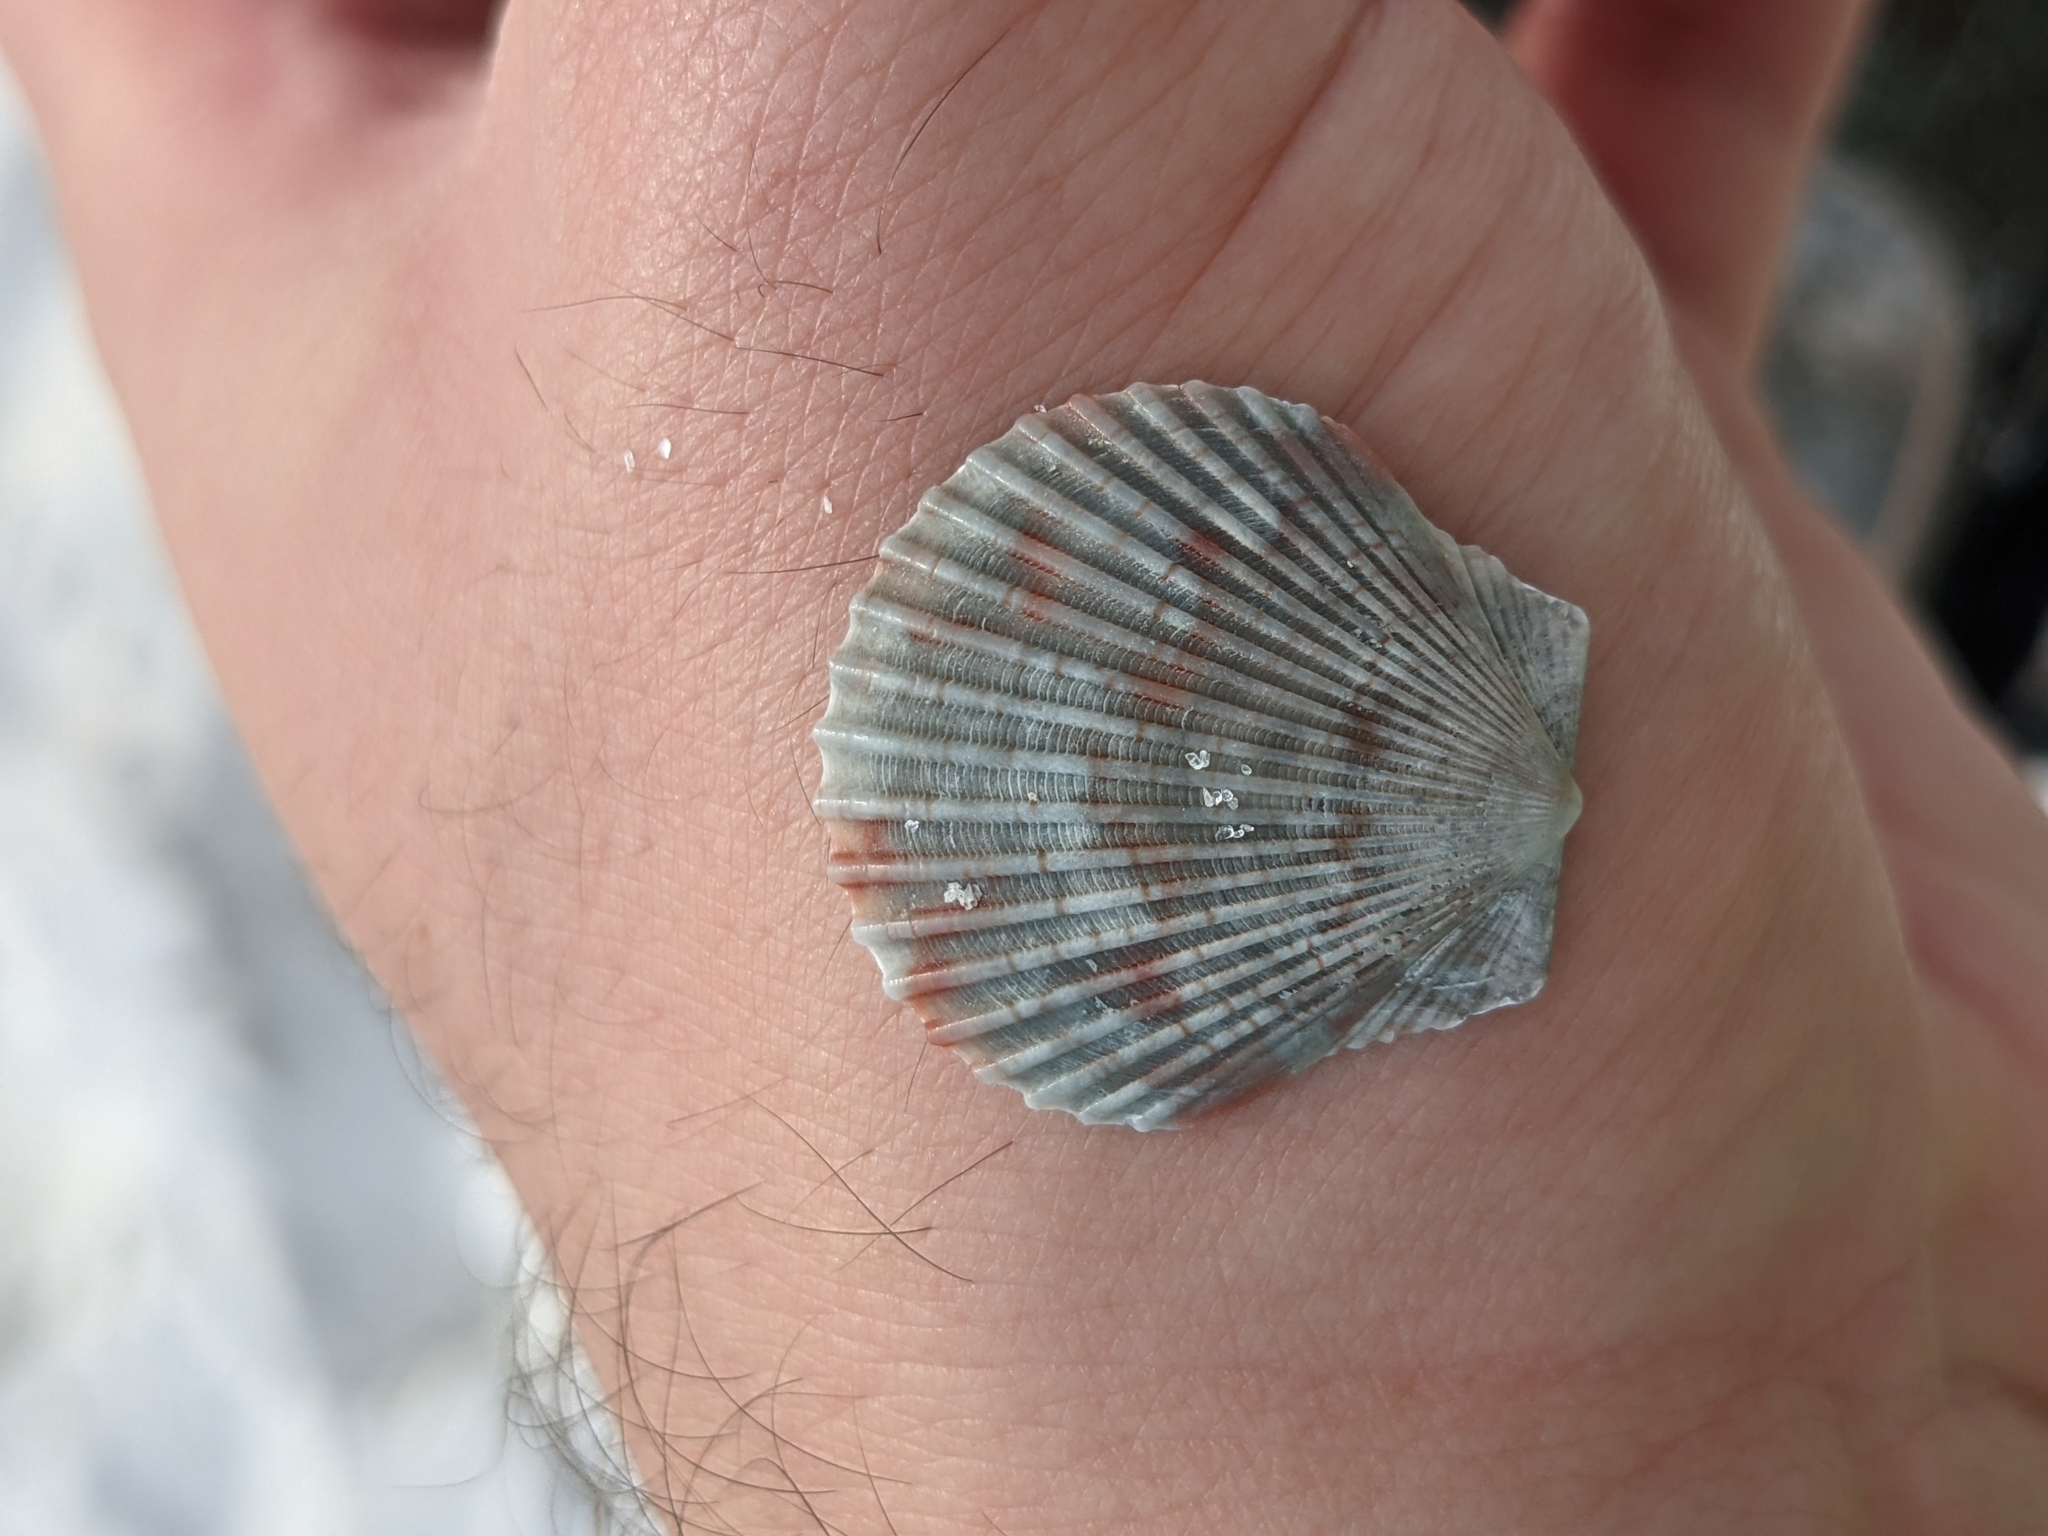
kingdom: Animalia
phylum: Mollusca
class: Bivalvia
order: Pectinida
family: Pectinidae
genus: Argopecten
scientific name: Argopecten gibbus
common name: Atlantic calico scallop
